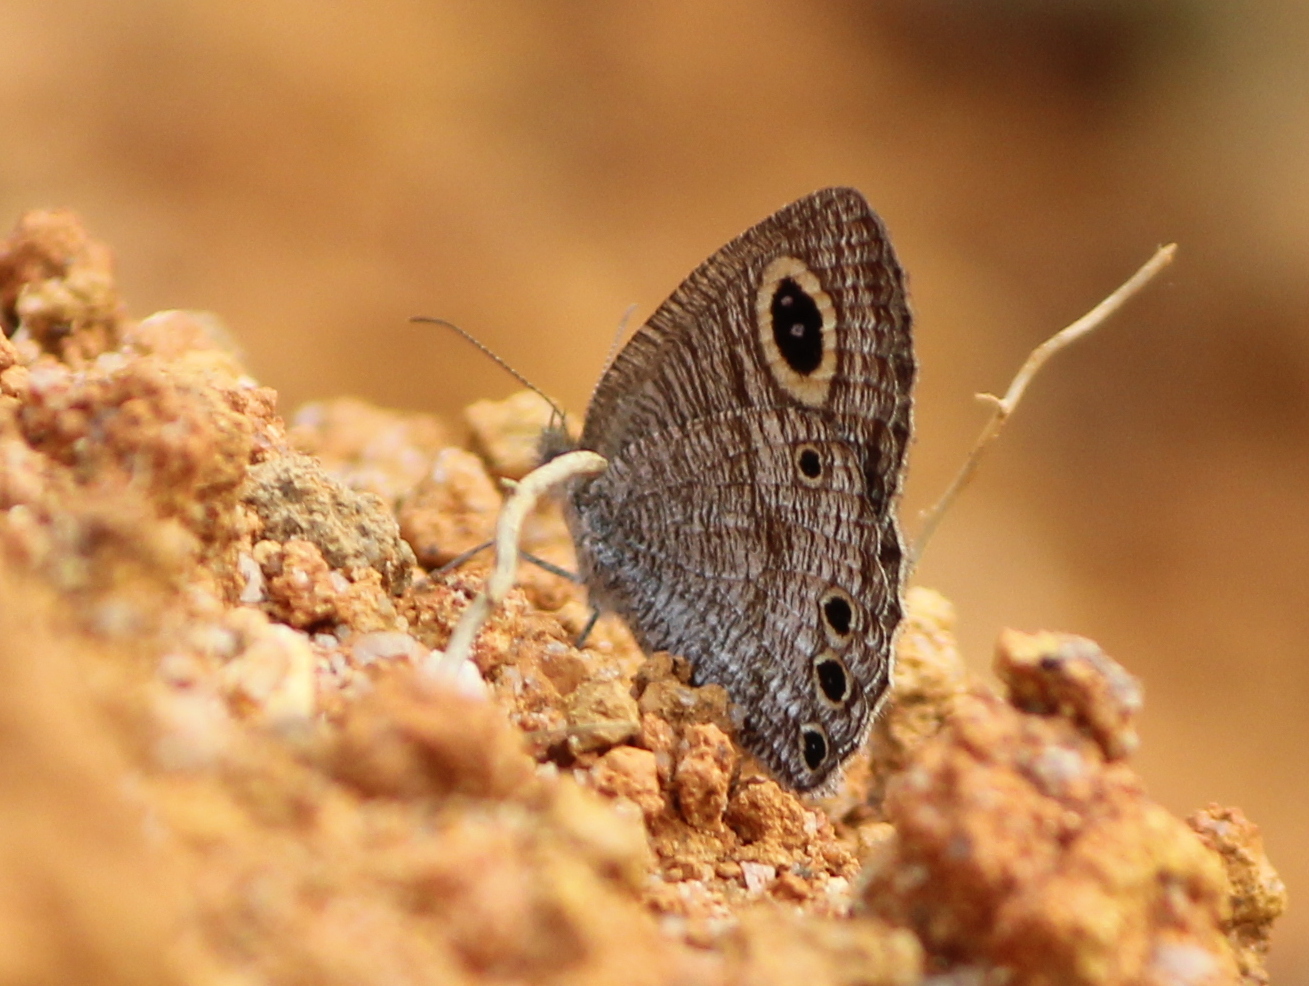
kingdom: Animalia
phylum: Arthropoda
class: Insecta
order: Lepidoptera
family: Nymphalidae
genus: Ypthima
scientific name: Ypthima huebneri
